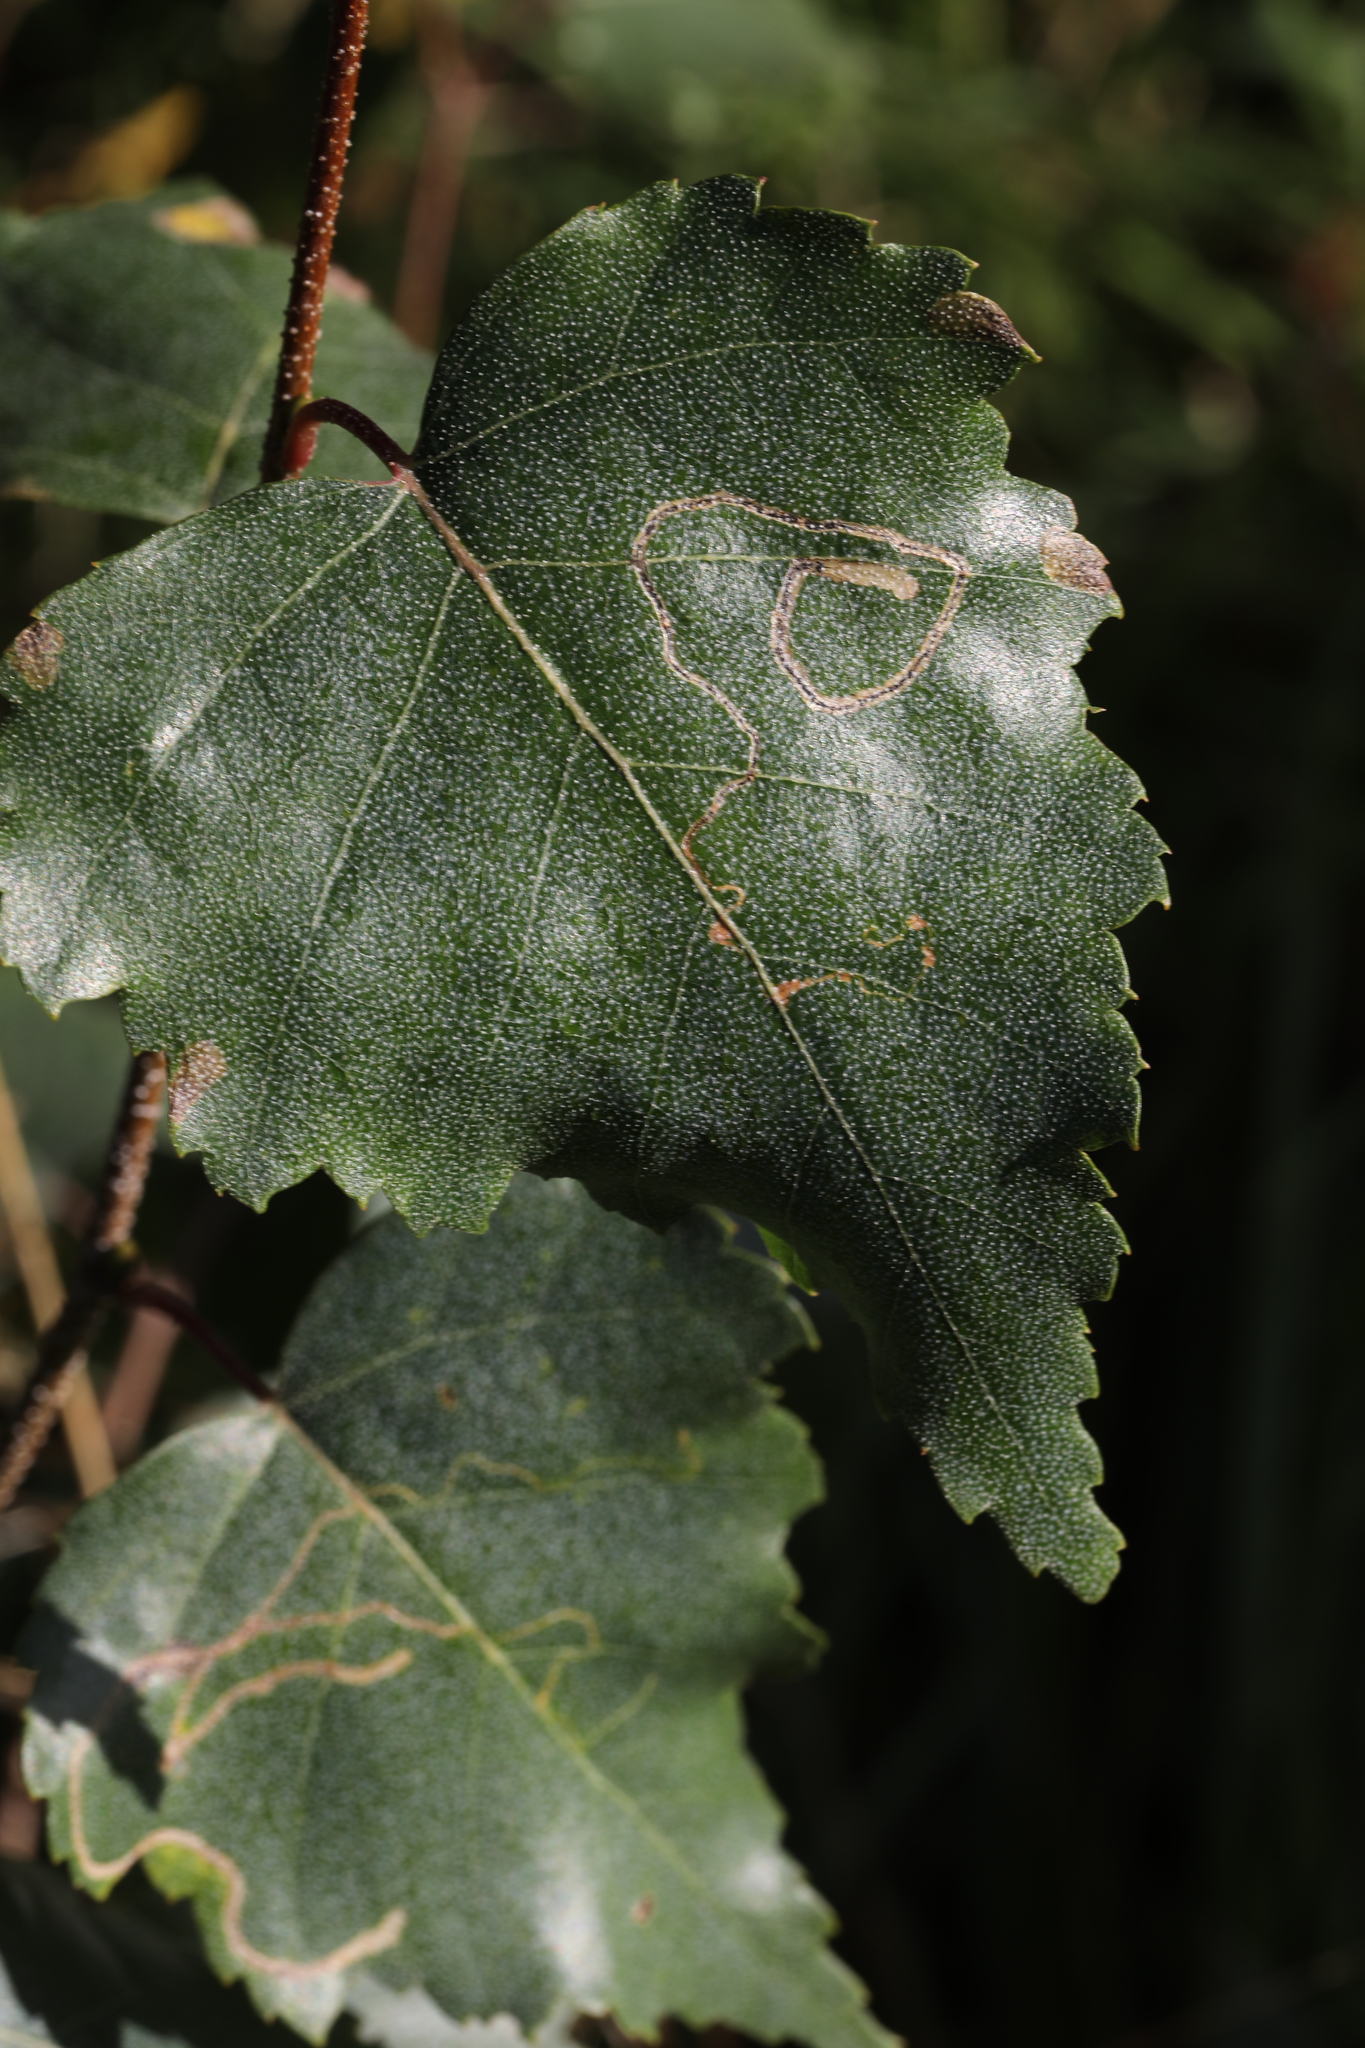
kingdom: Animalia
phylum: Arthropoda
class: Insecta
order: Lepidoptera
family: Lyonetiidae
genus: Lyonetia
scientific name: Lyonetia clerkella
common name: Apple leaf miner
